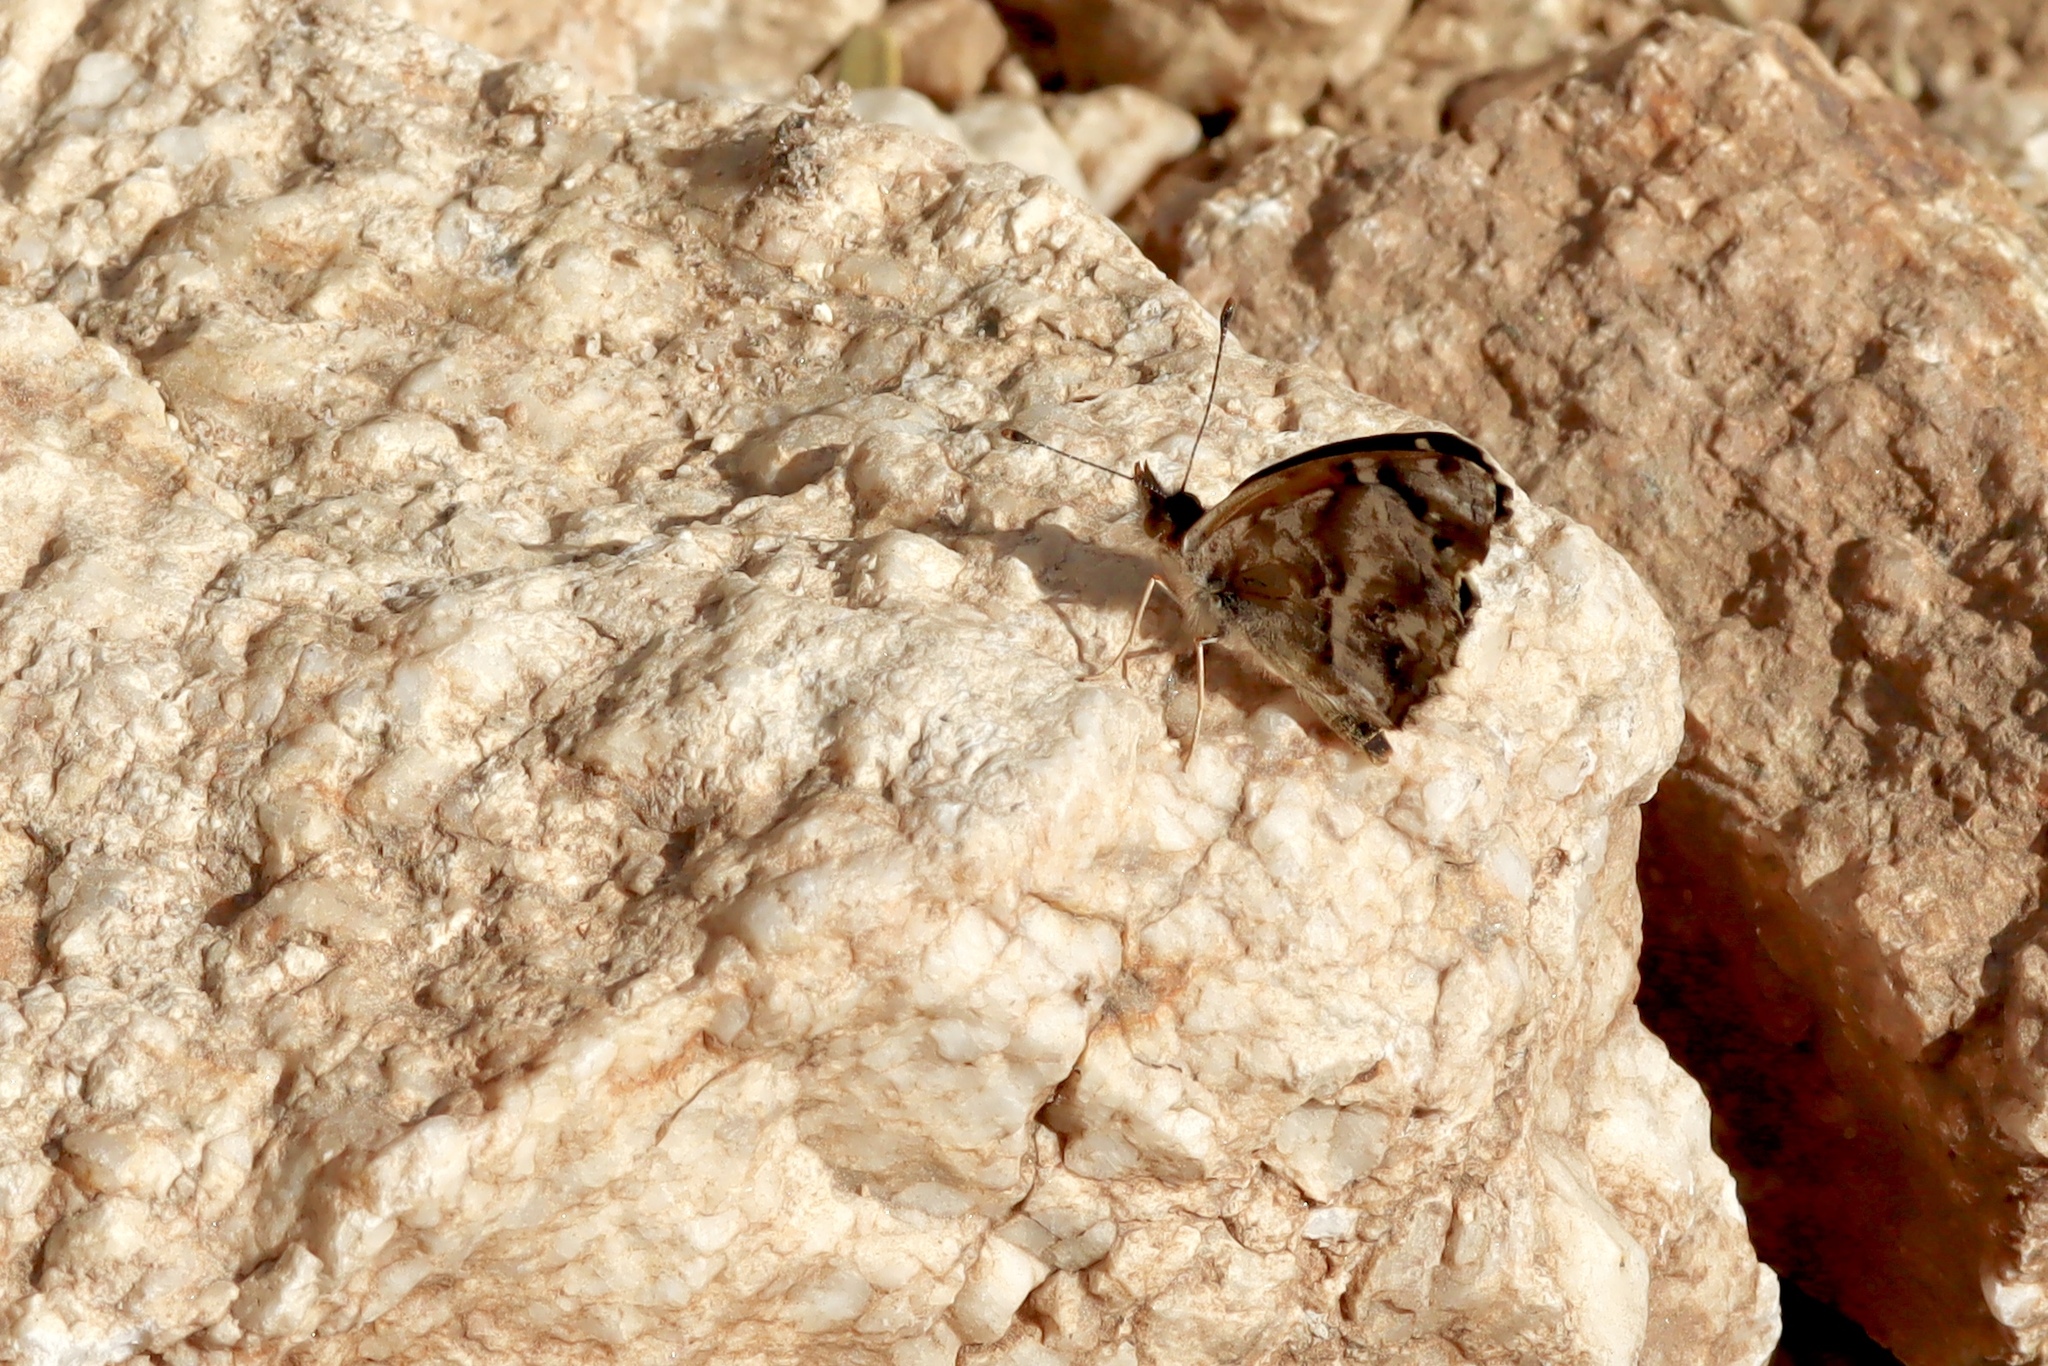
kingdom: Animalia
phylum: Arthropoda
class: Insecta
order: Lepidoptera
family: Nymphalidae
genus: Anthanassa
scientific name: Anthanassa texana
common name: Texan crescent
